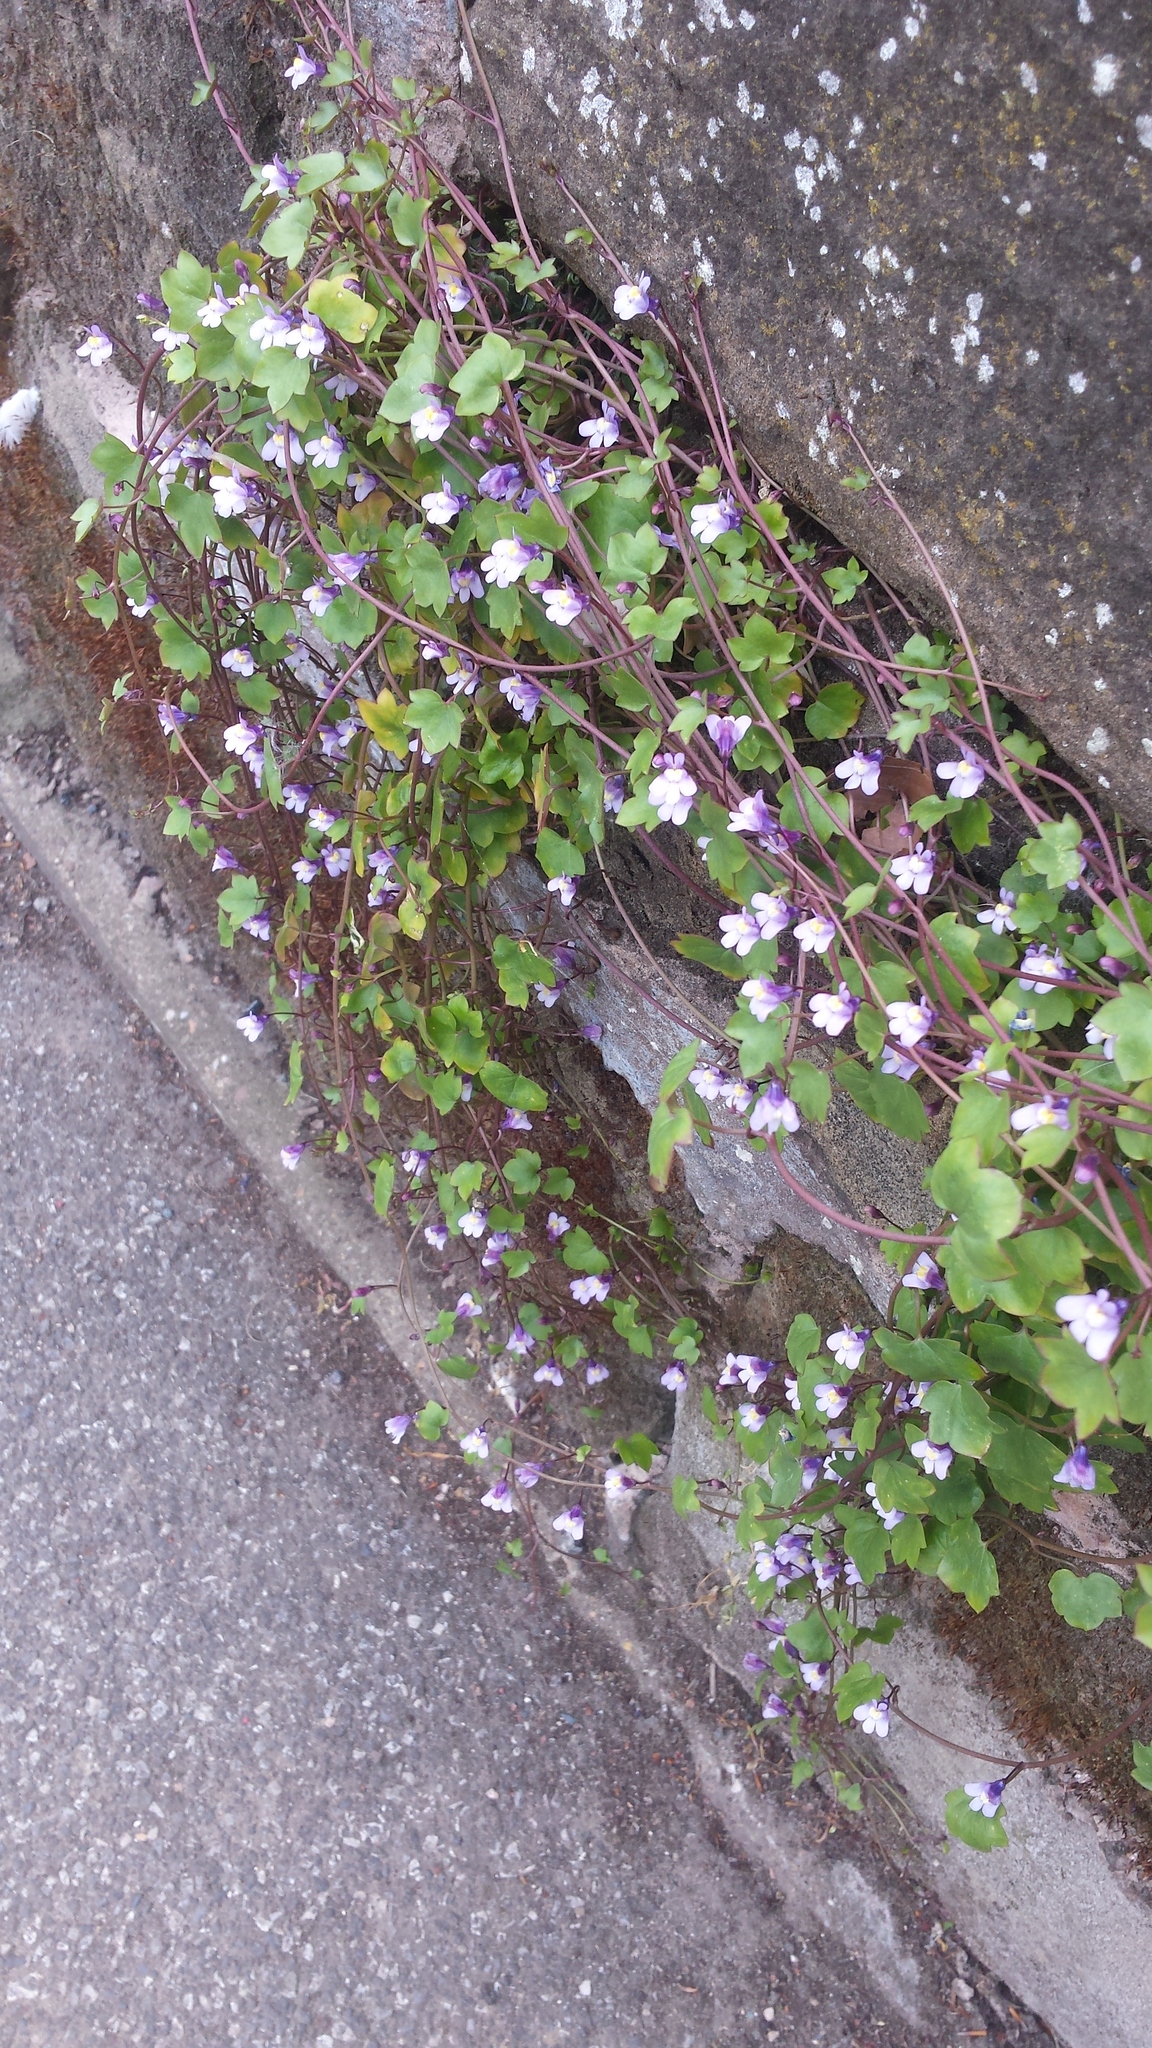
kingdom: Plantae
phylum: Tracheophyta
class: Magnoliopsida
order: Lamiales
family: Plantaginaceae
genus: Cymbalaria
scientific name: Cymbalaria muralis
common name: Ivy-leaved toadflax
